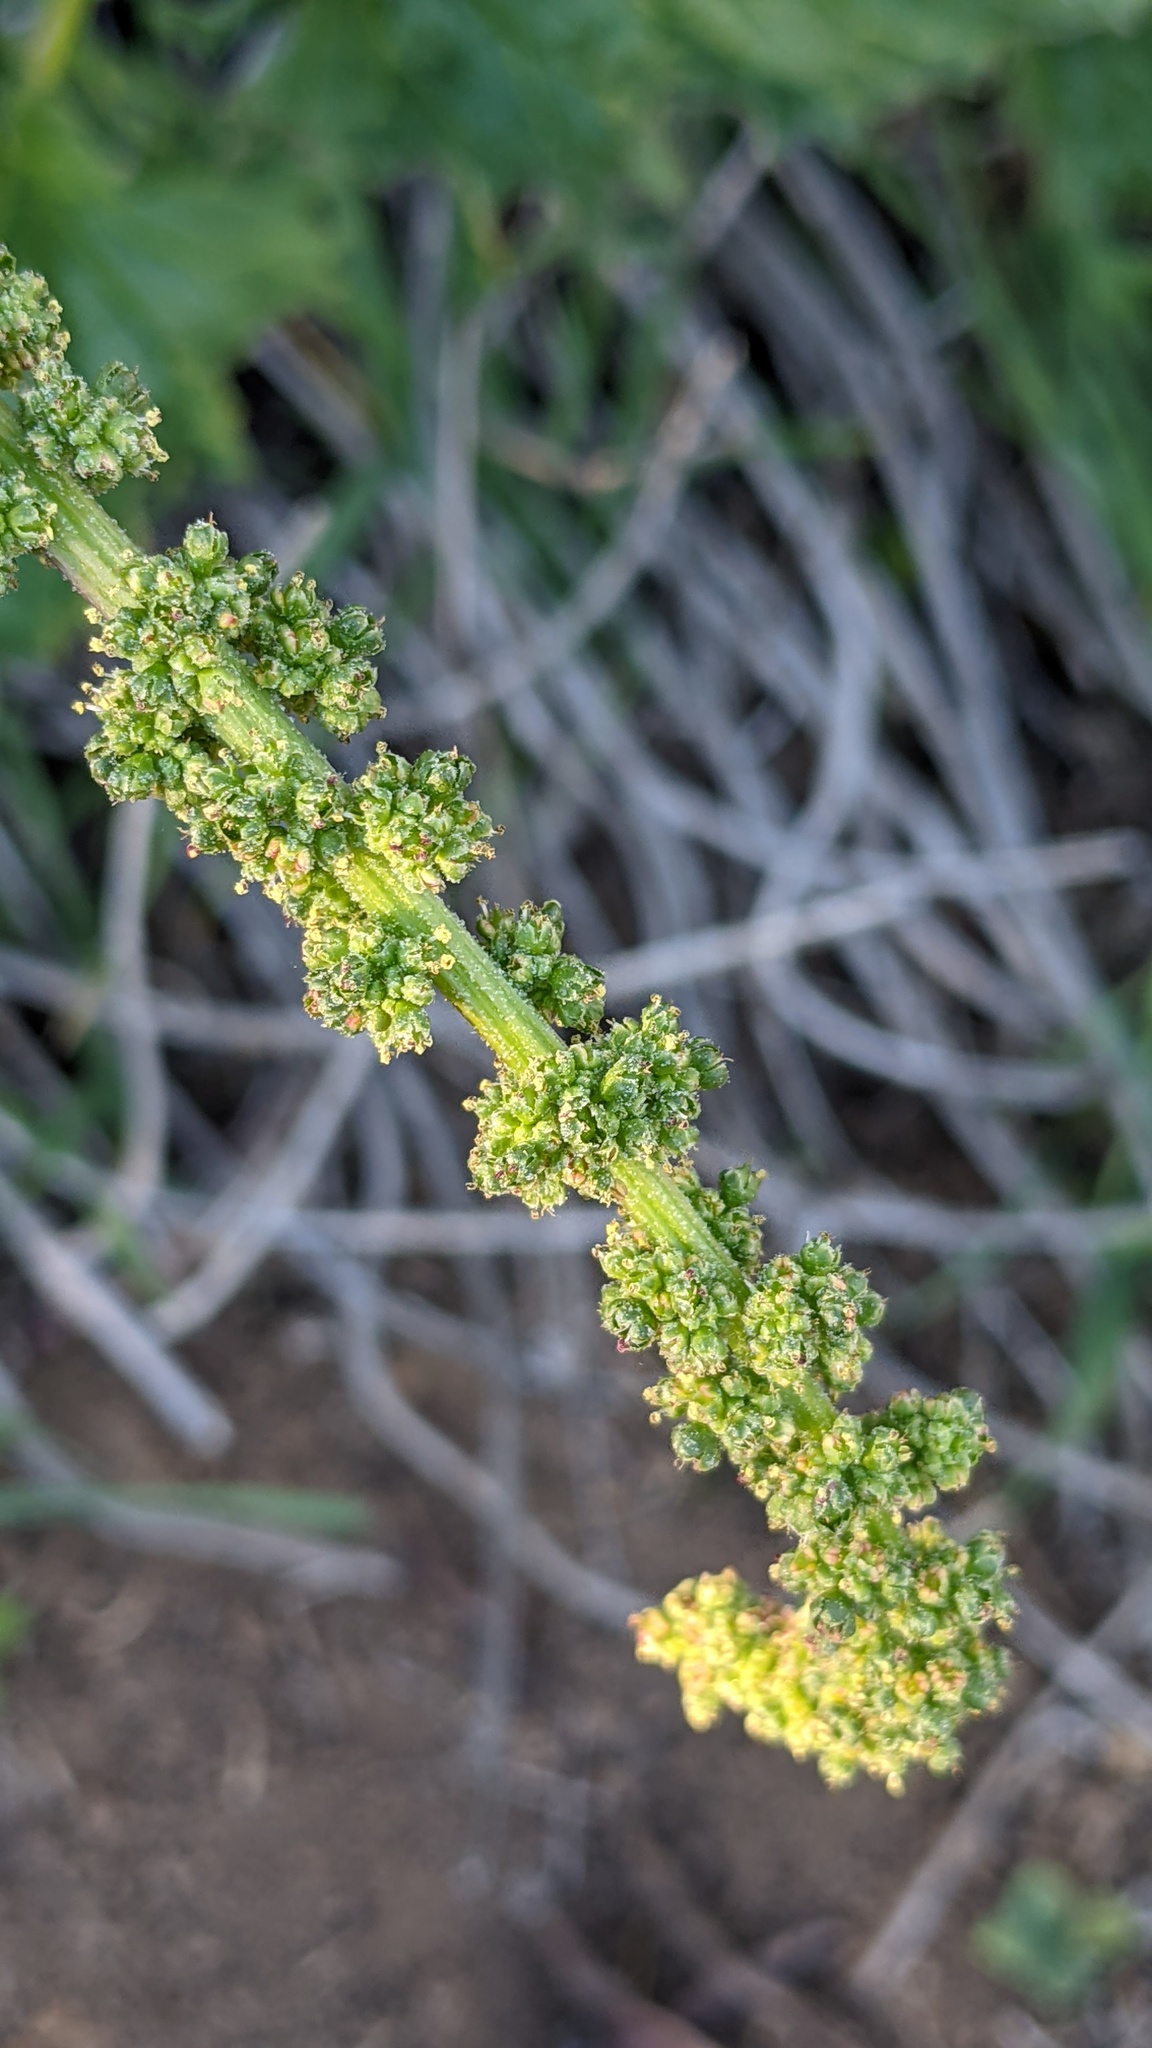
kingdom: Plantae
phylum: Tracheophyta
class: Magnoliopsida
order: Caryophyllales
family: Amaranthaceae
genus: Blitum
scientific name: Blitum californicum
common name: California goosefoot
